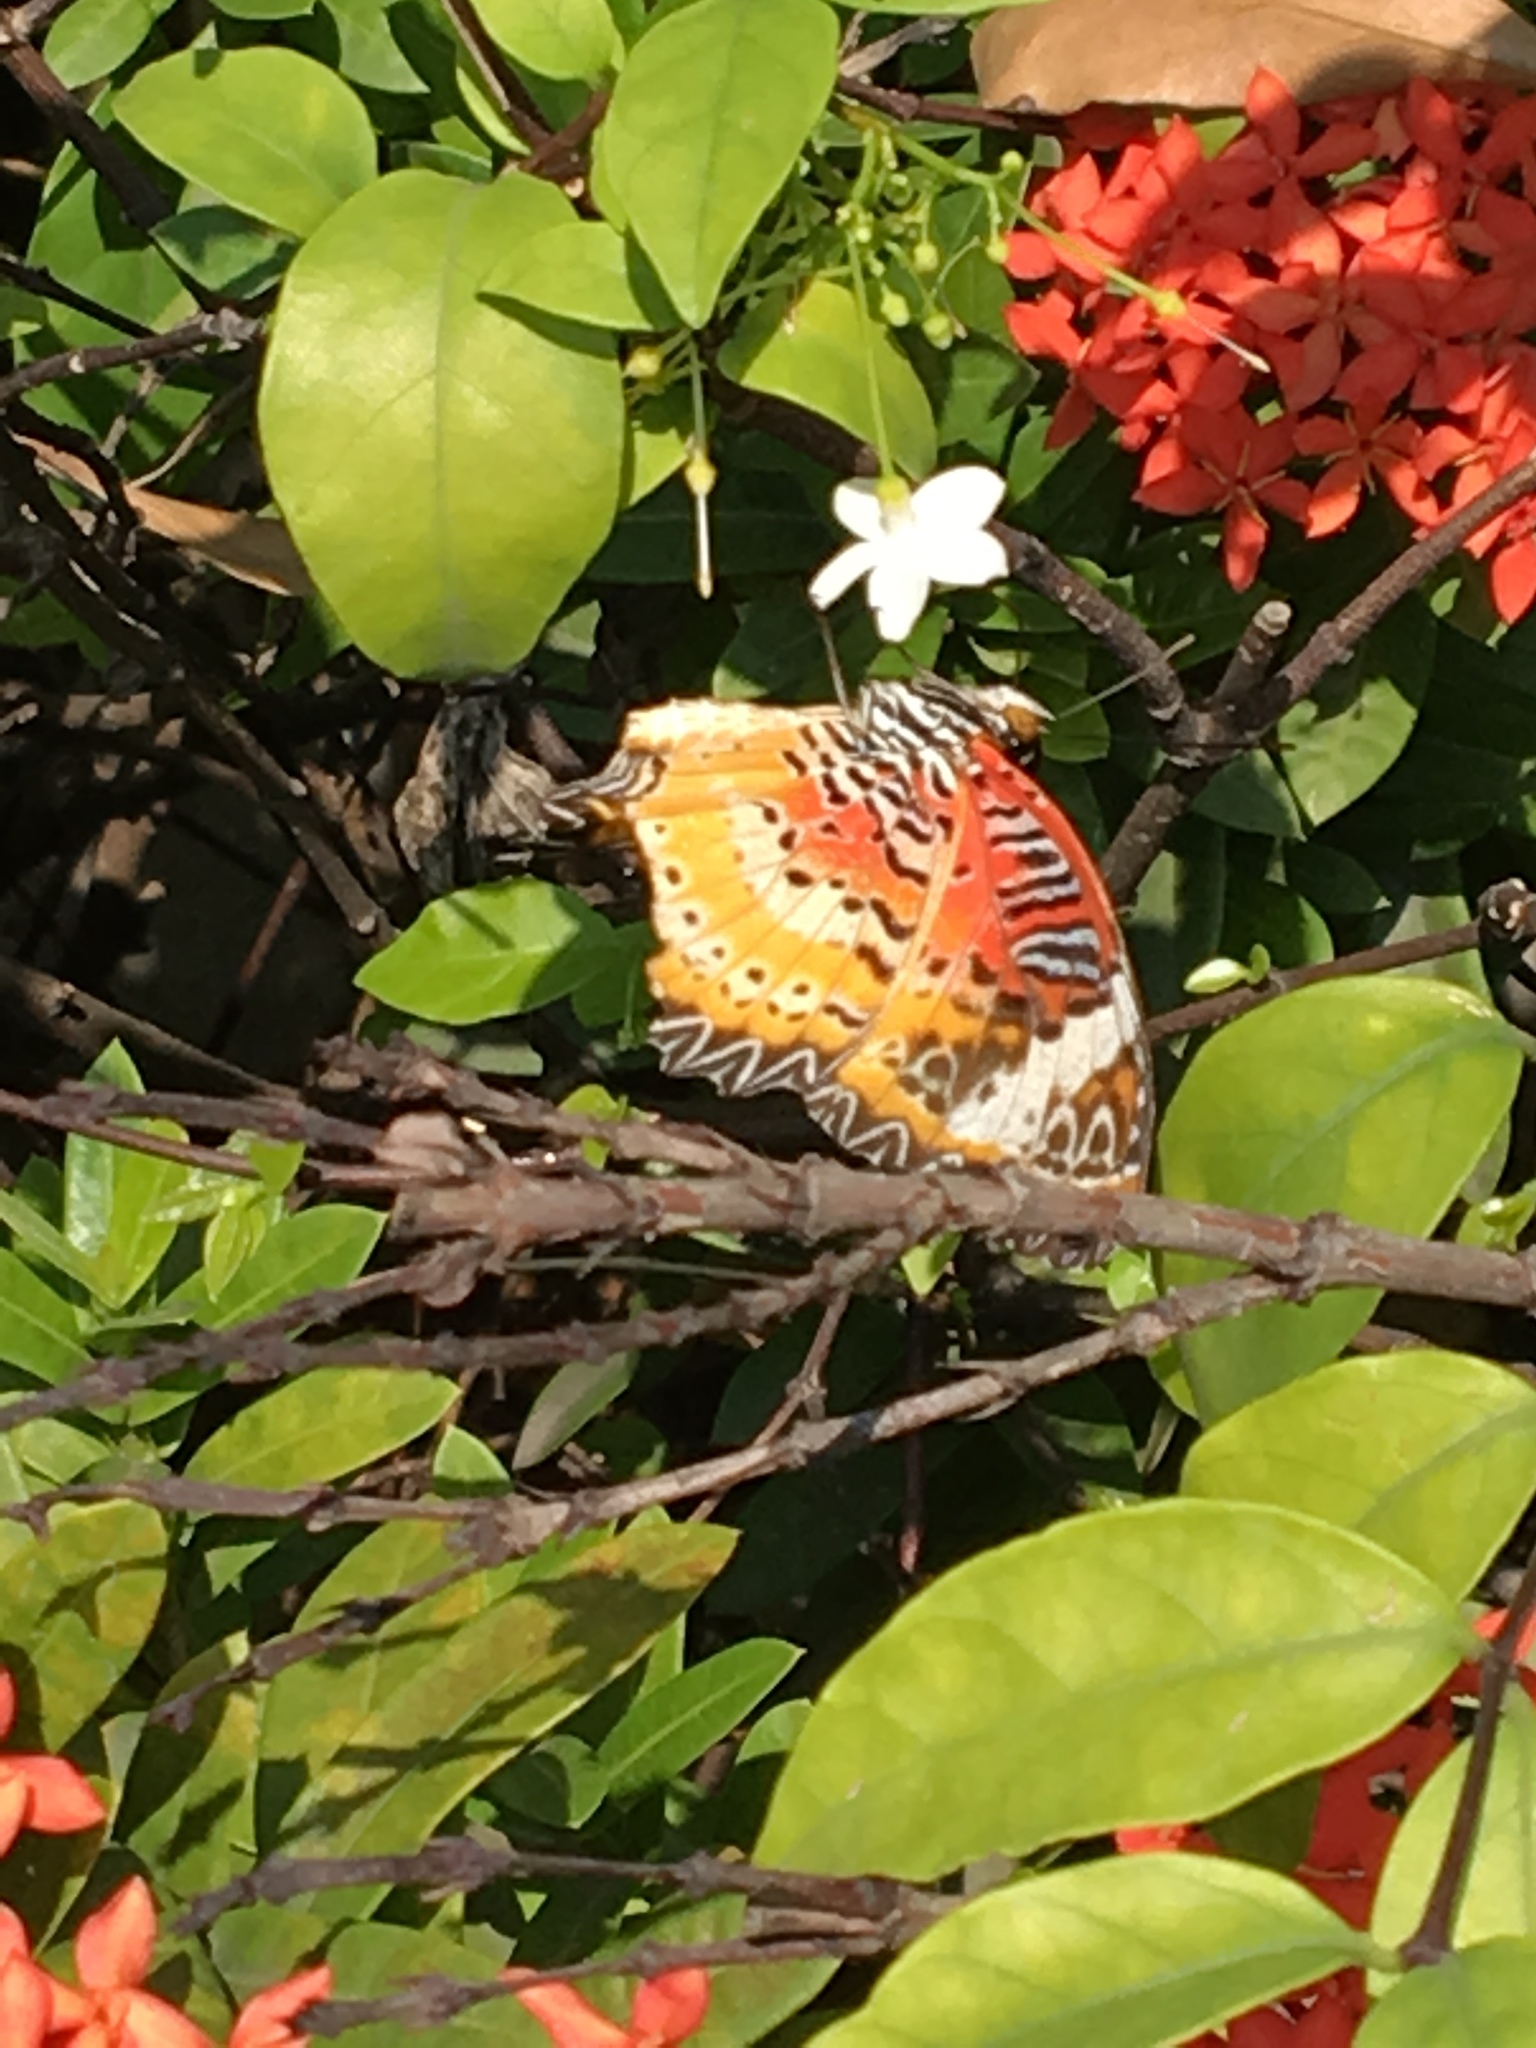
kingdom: Animalia
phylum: Arthropoda
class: Insecta
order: Lepidoptera
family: Nymphalidae
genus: Cethosia
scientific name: Cethosia cyane
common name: Leopard lacewing butterfly
